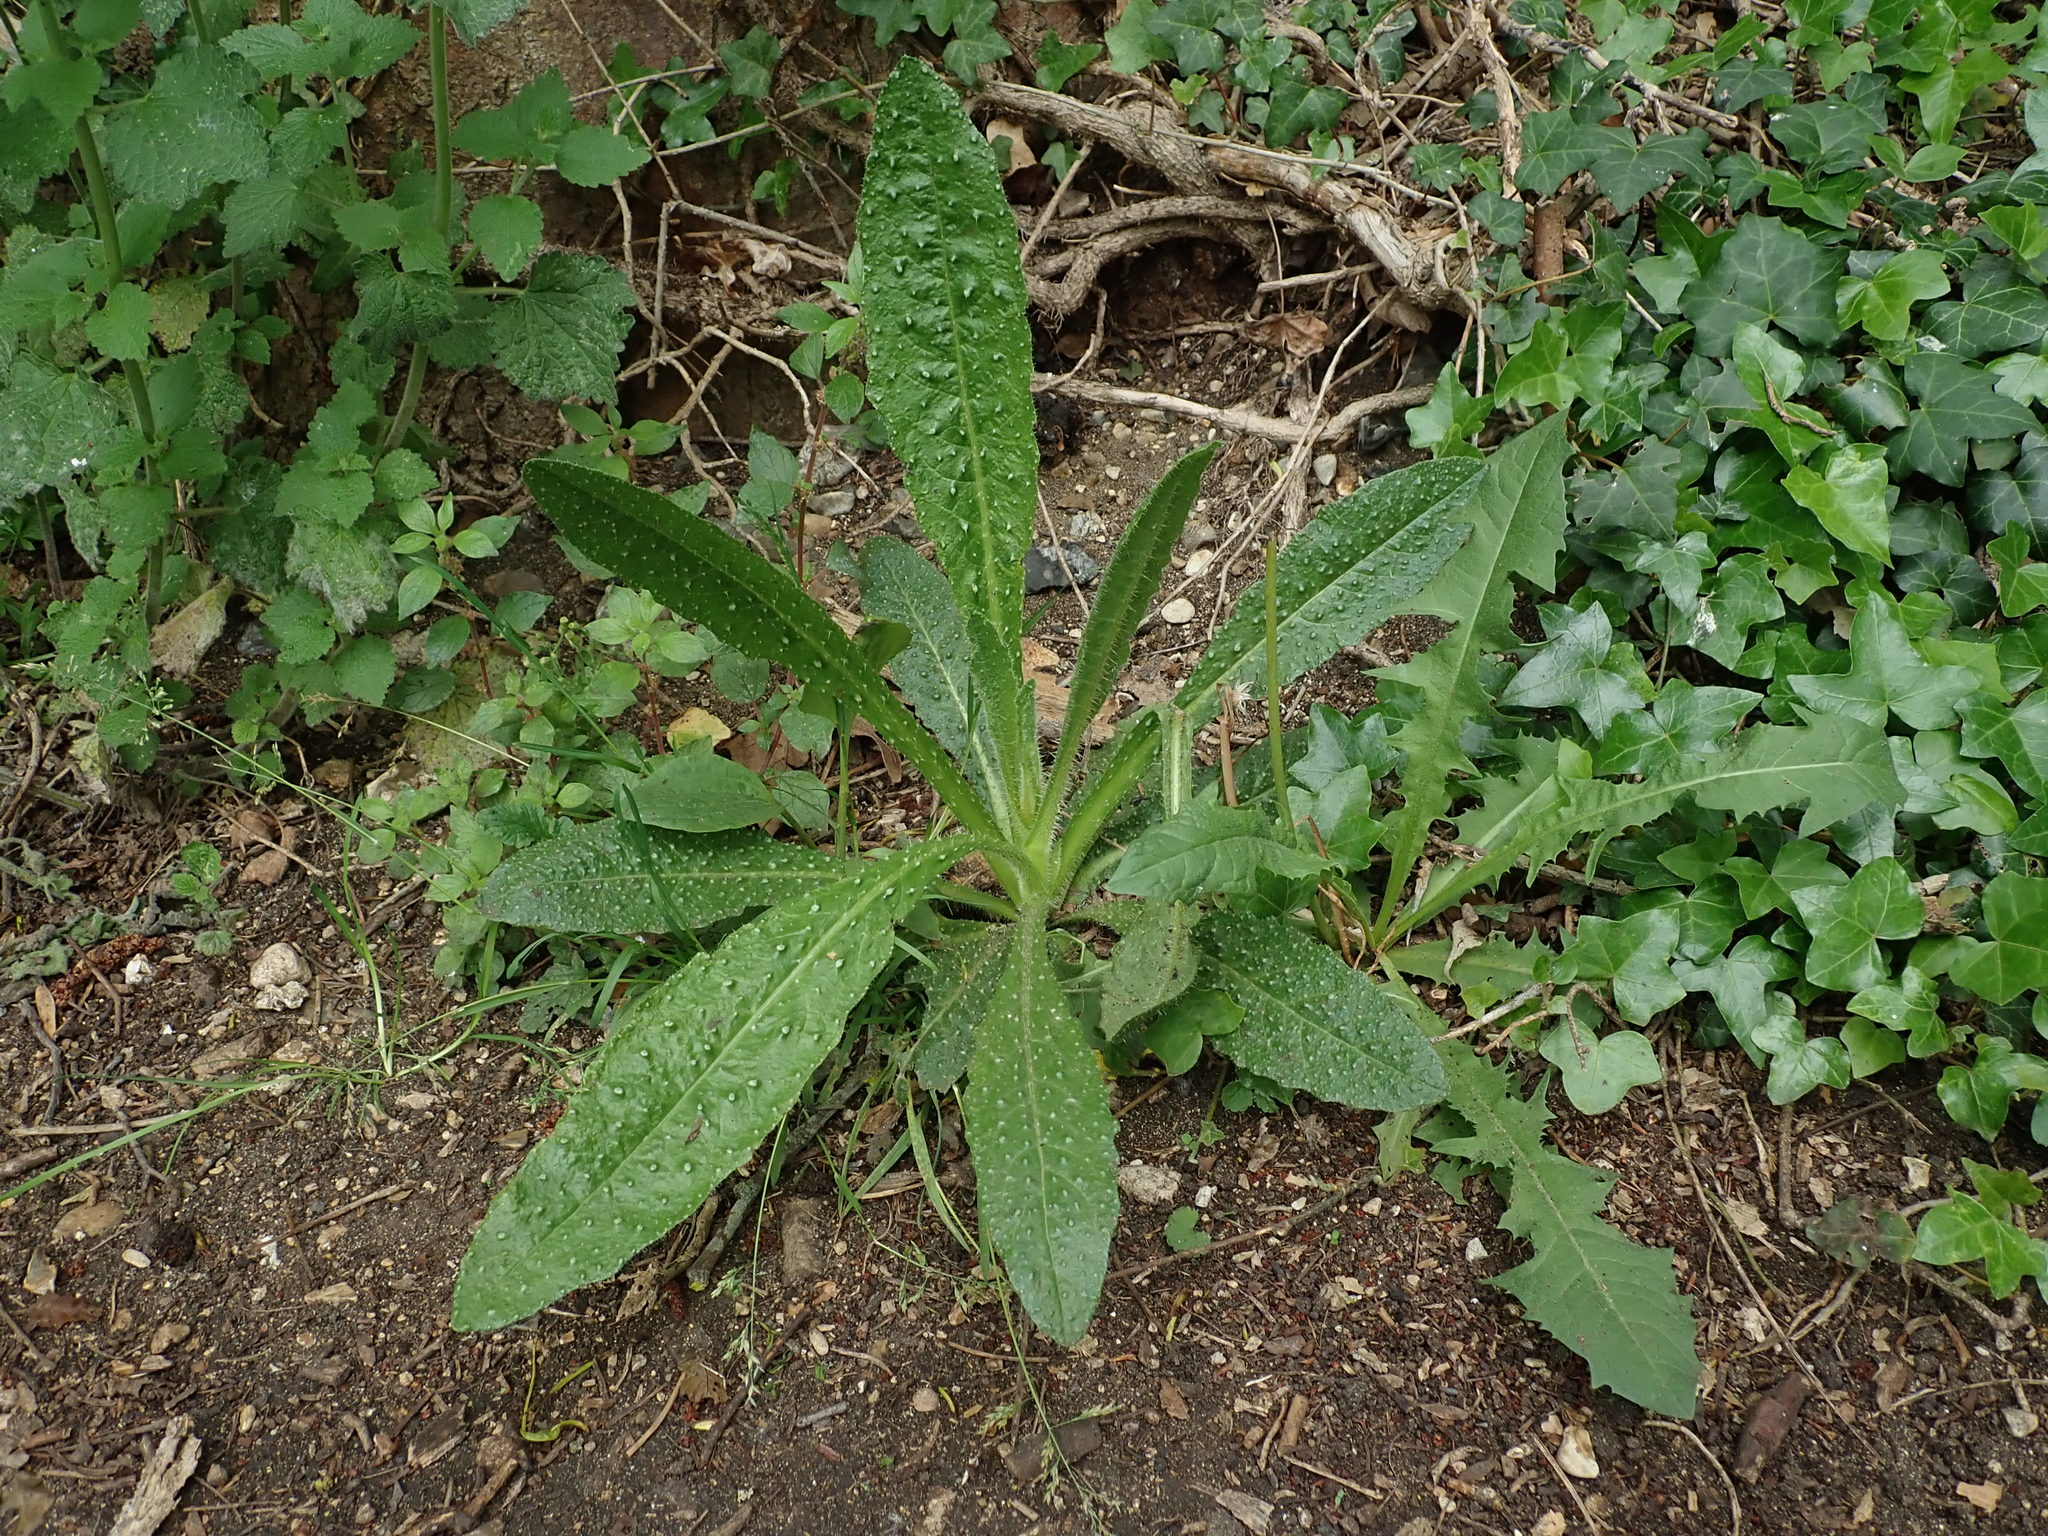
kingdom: Plantae
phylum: Tracheophyta
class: Magnoliopsida
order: Asterales
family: Asteraceae
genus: Helminthotheca
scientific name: Helminthotheca echioides
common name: Ox-tongue
